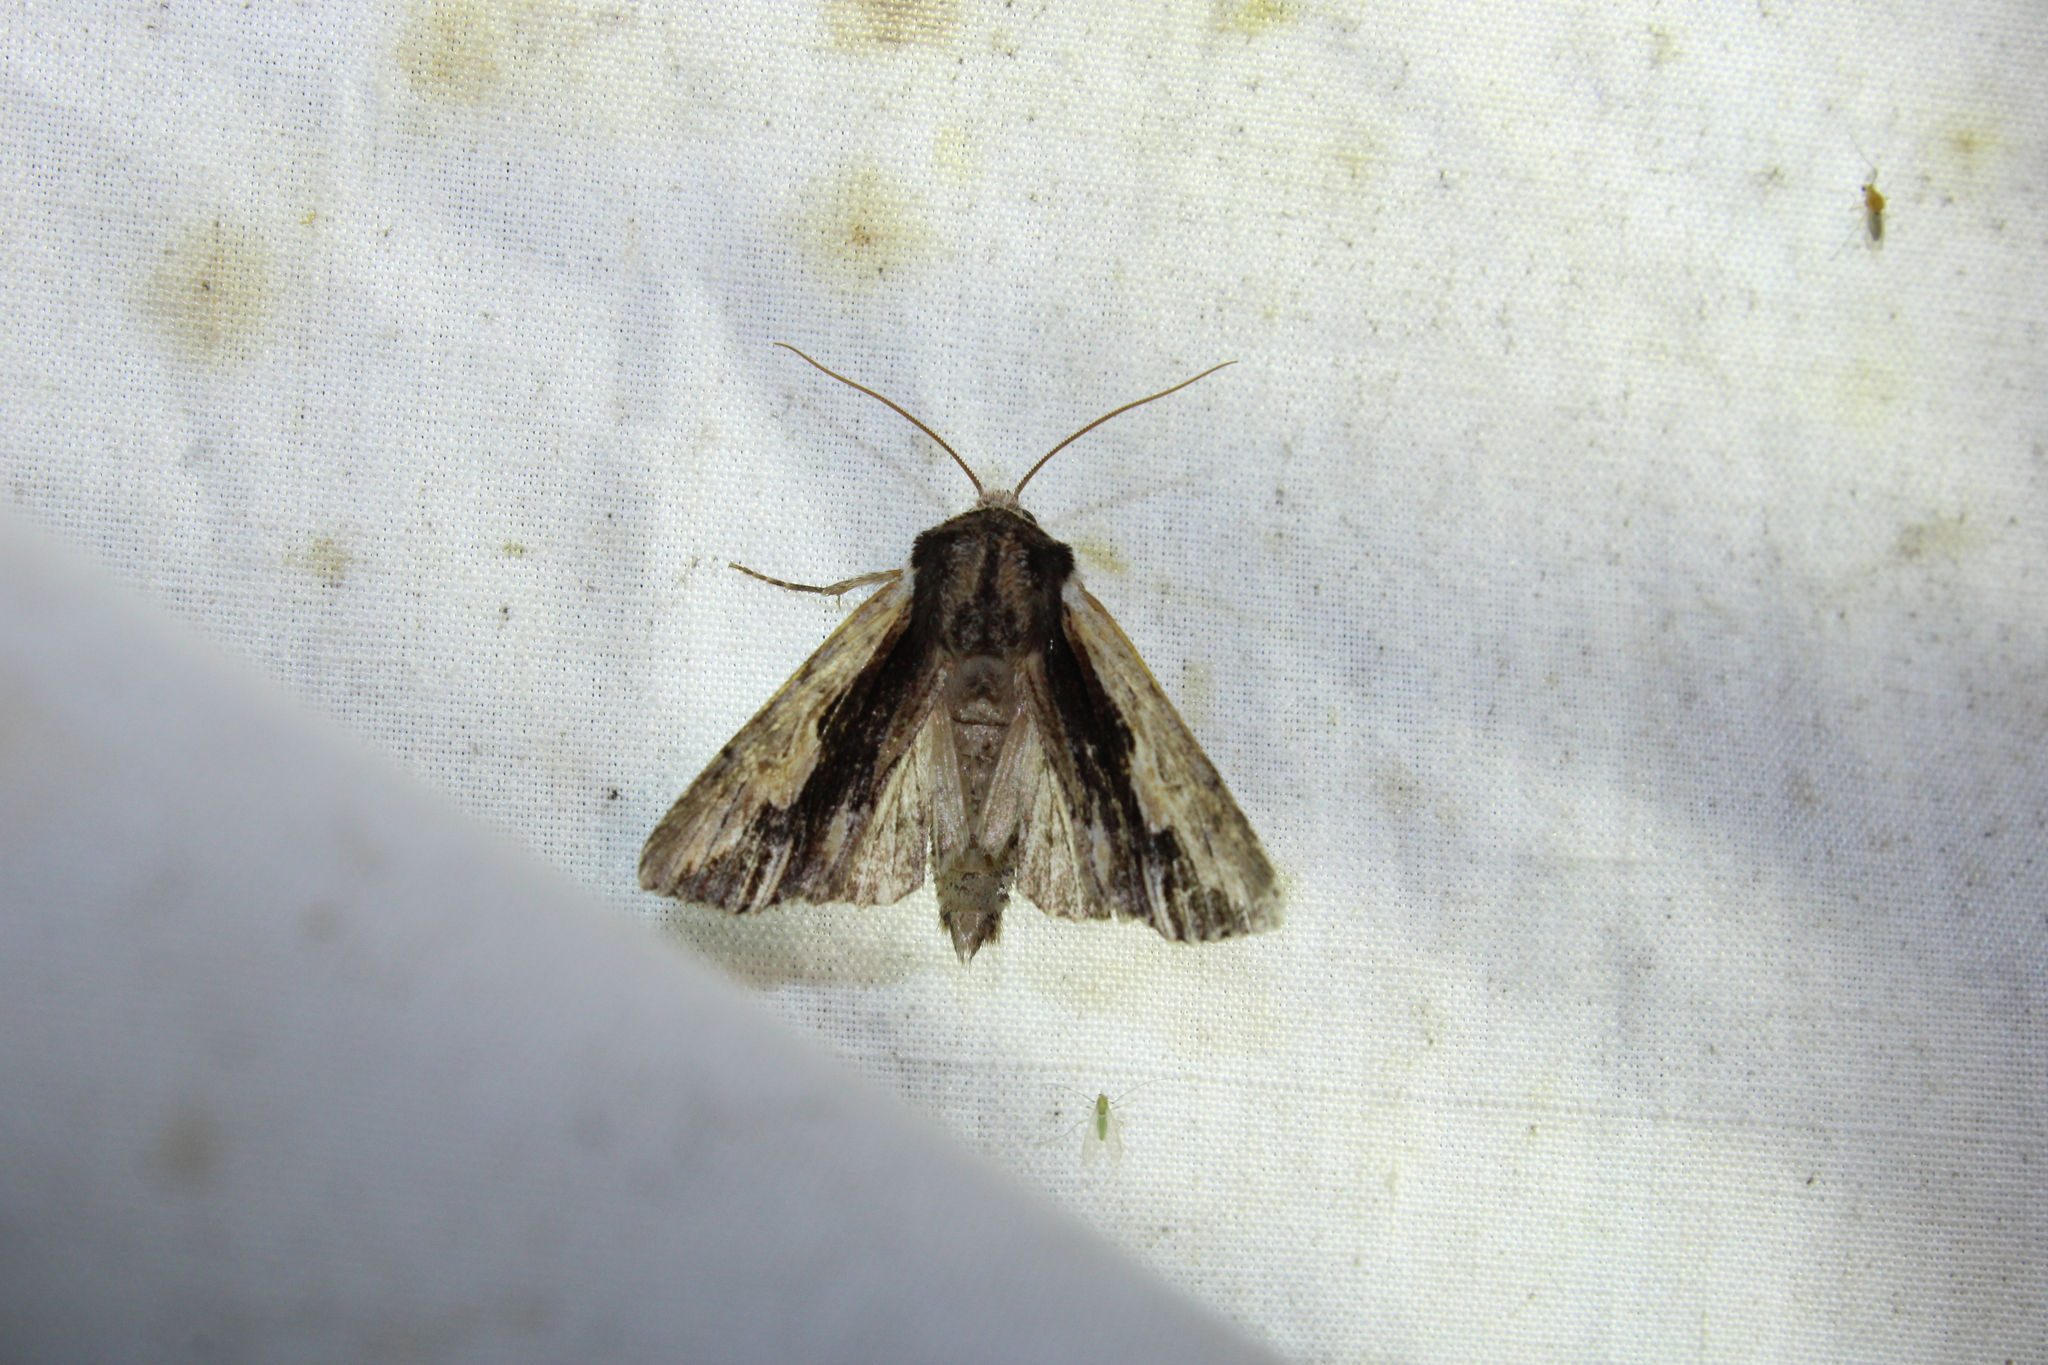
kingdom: Animalia
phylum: Arthropoda
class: Insecta
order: Lepidoptera
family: Noctuidae
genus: Achatia
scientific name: Achatia evicta
